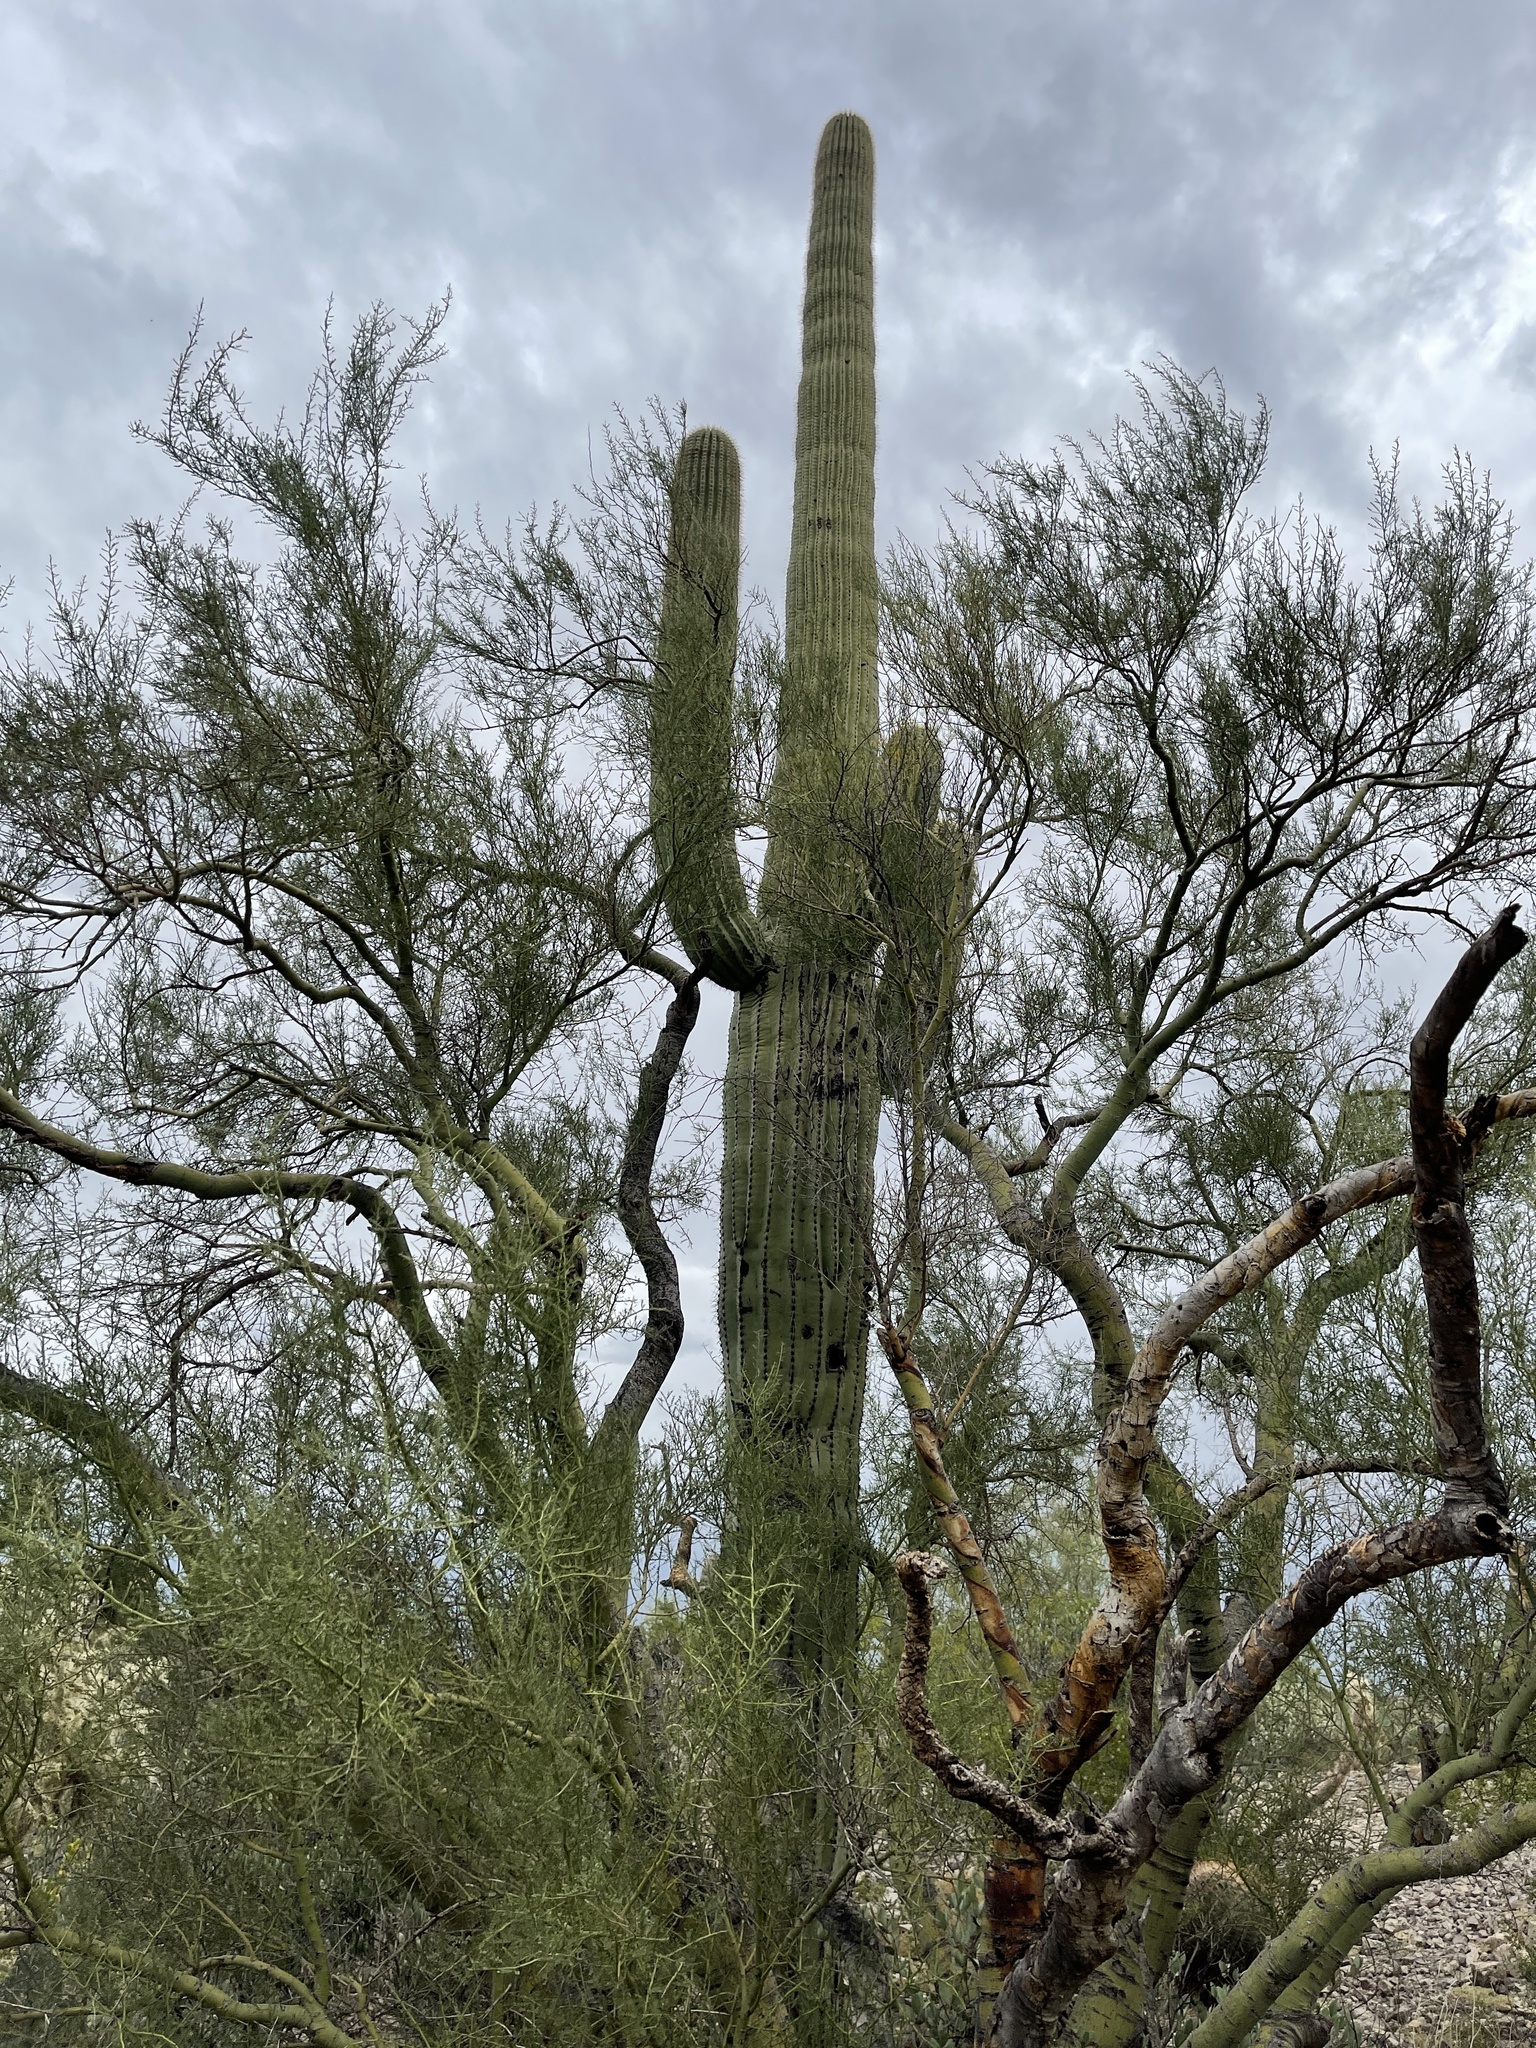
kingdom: Plantae
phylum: Tracheophyta
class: Magnoliopsida
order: Caryophyllales
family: Cactaceae
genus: Carnegiea
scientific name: Carnegiea gigantea
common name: Saguaro
